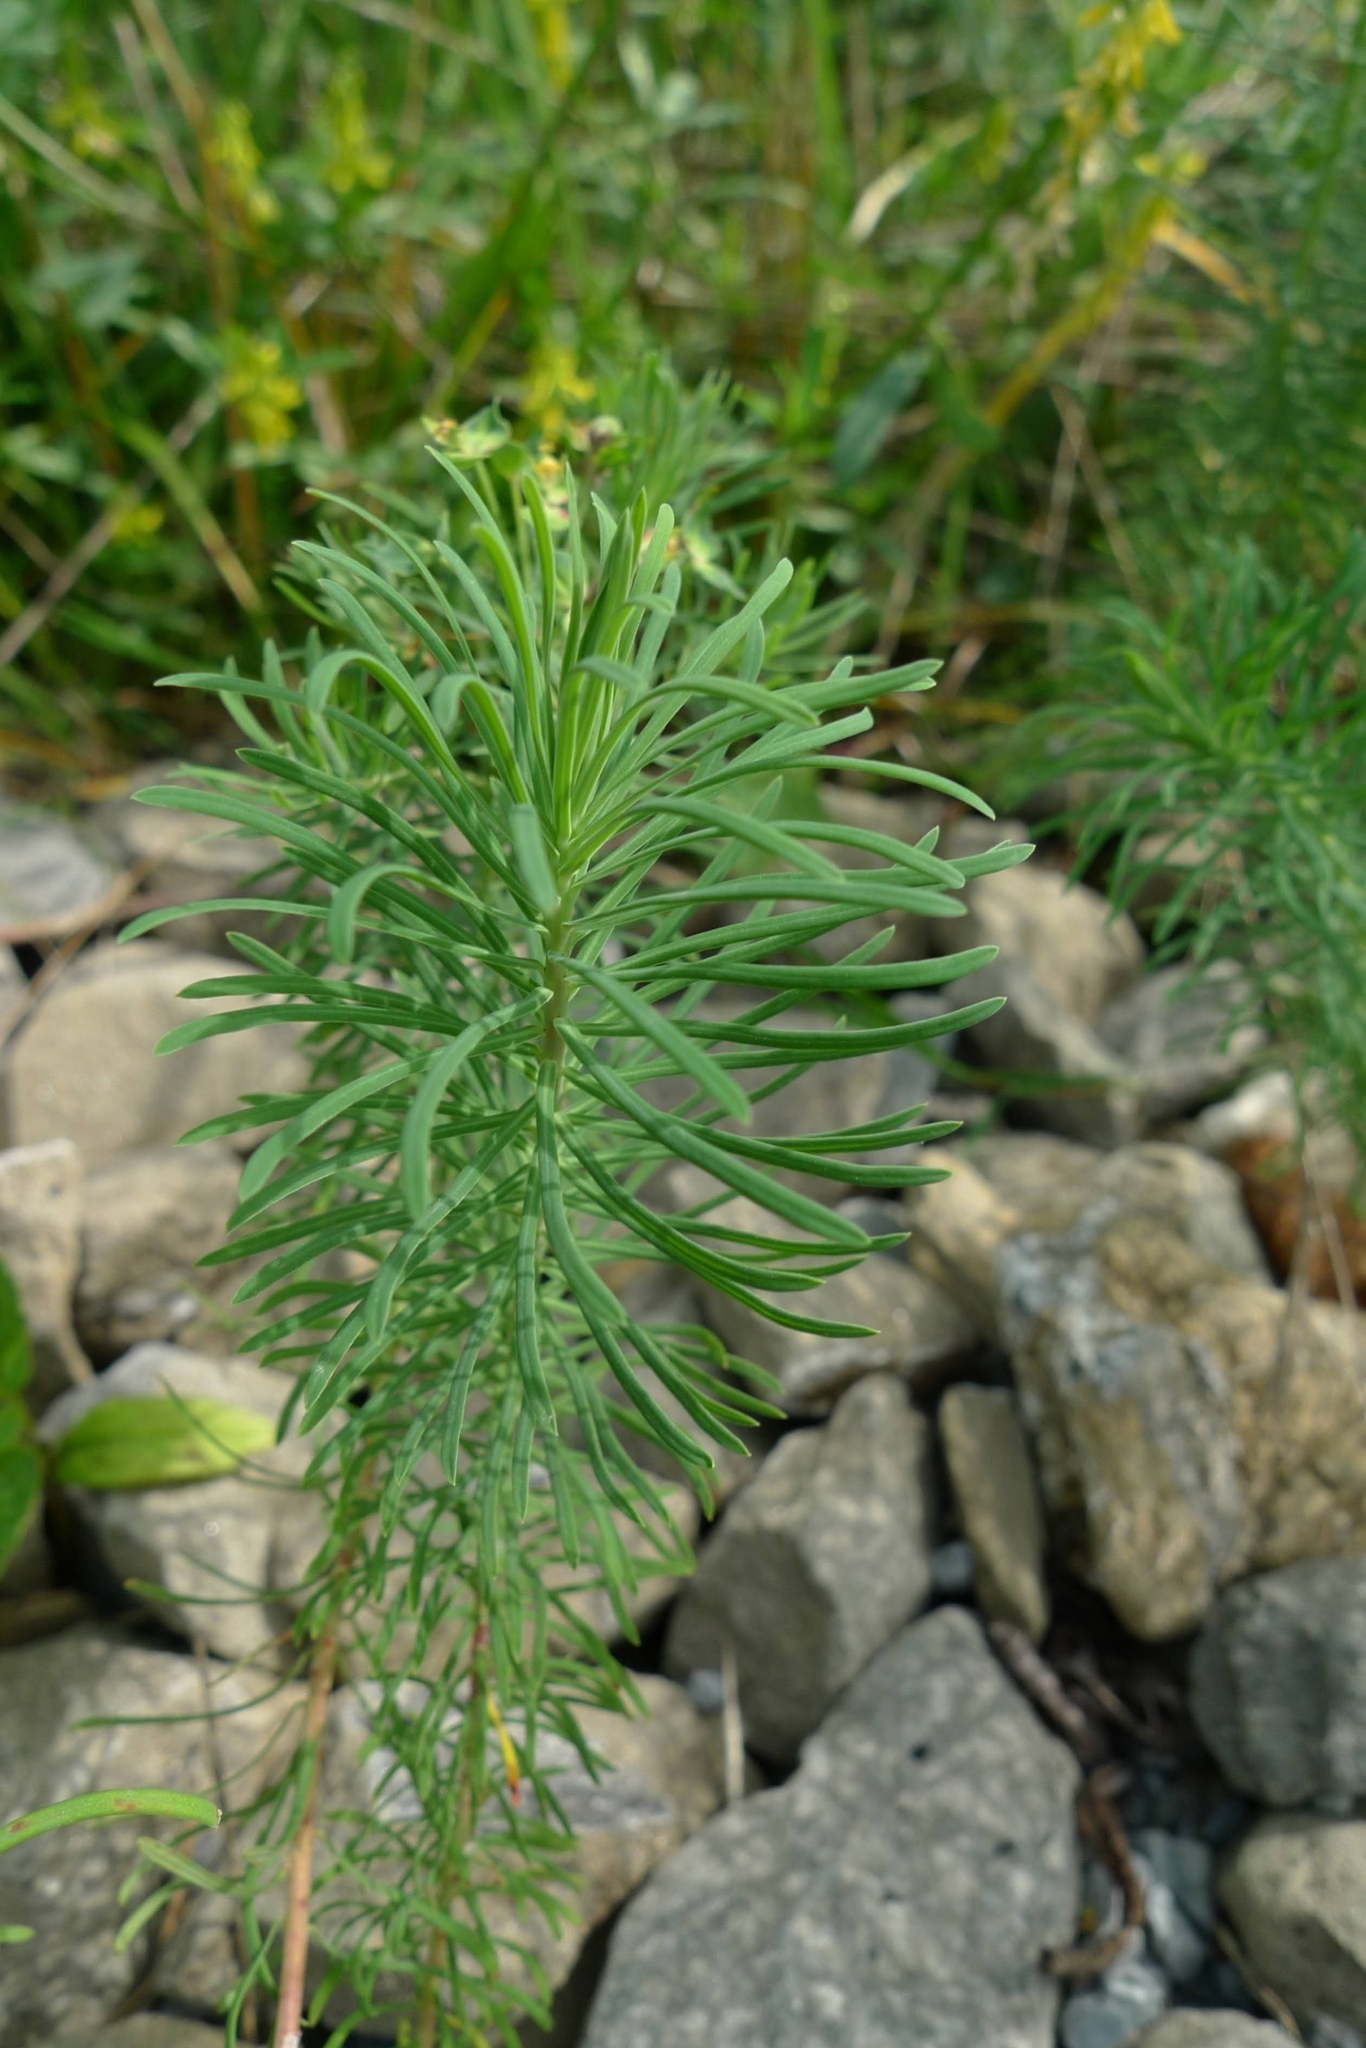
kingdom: Plantae
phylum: Tracheophyta
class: Magnoliopsida
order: Malpighiales
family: Euphorbiaceae
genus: Euphorbia
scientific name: Euphorbia cyparissias
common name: Cypress spurge
